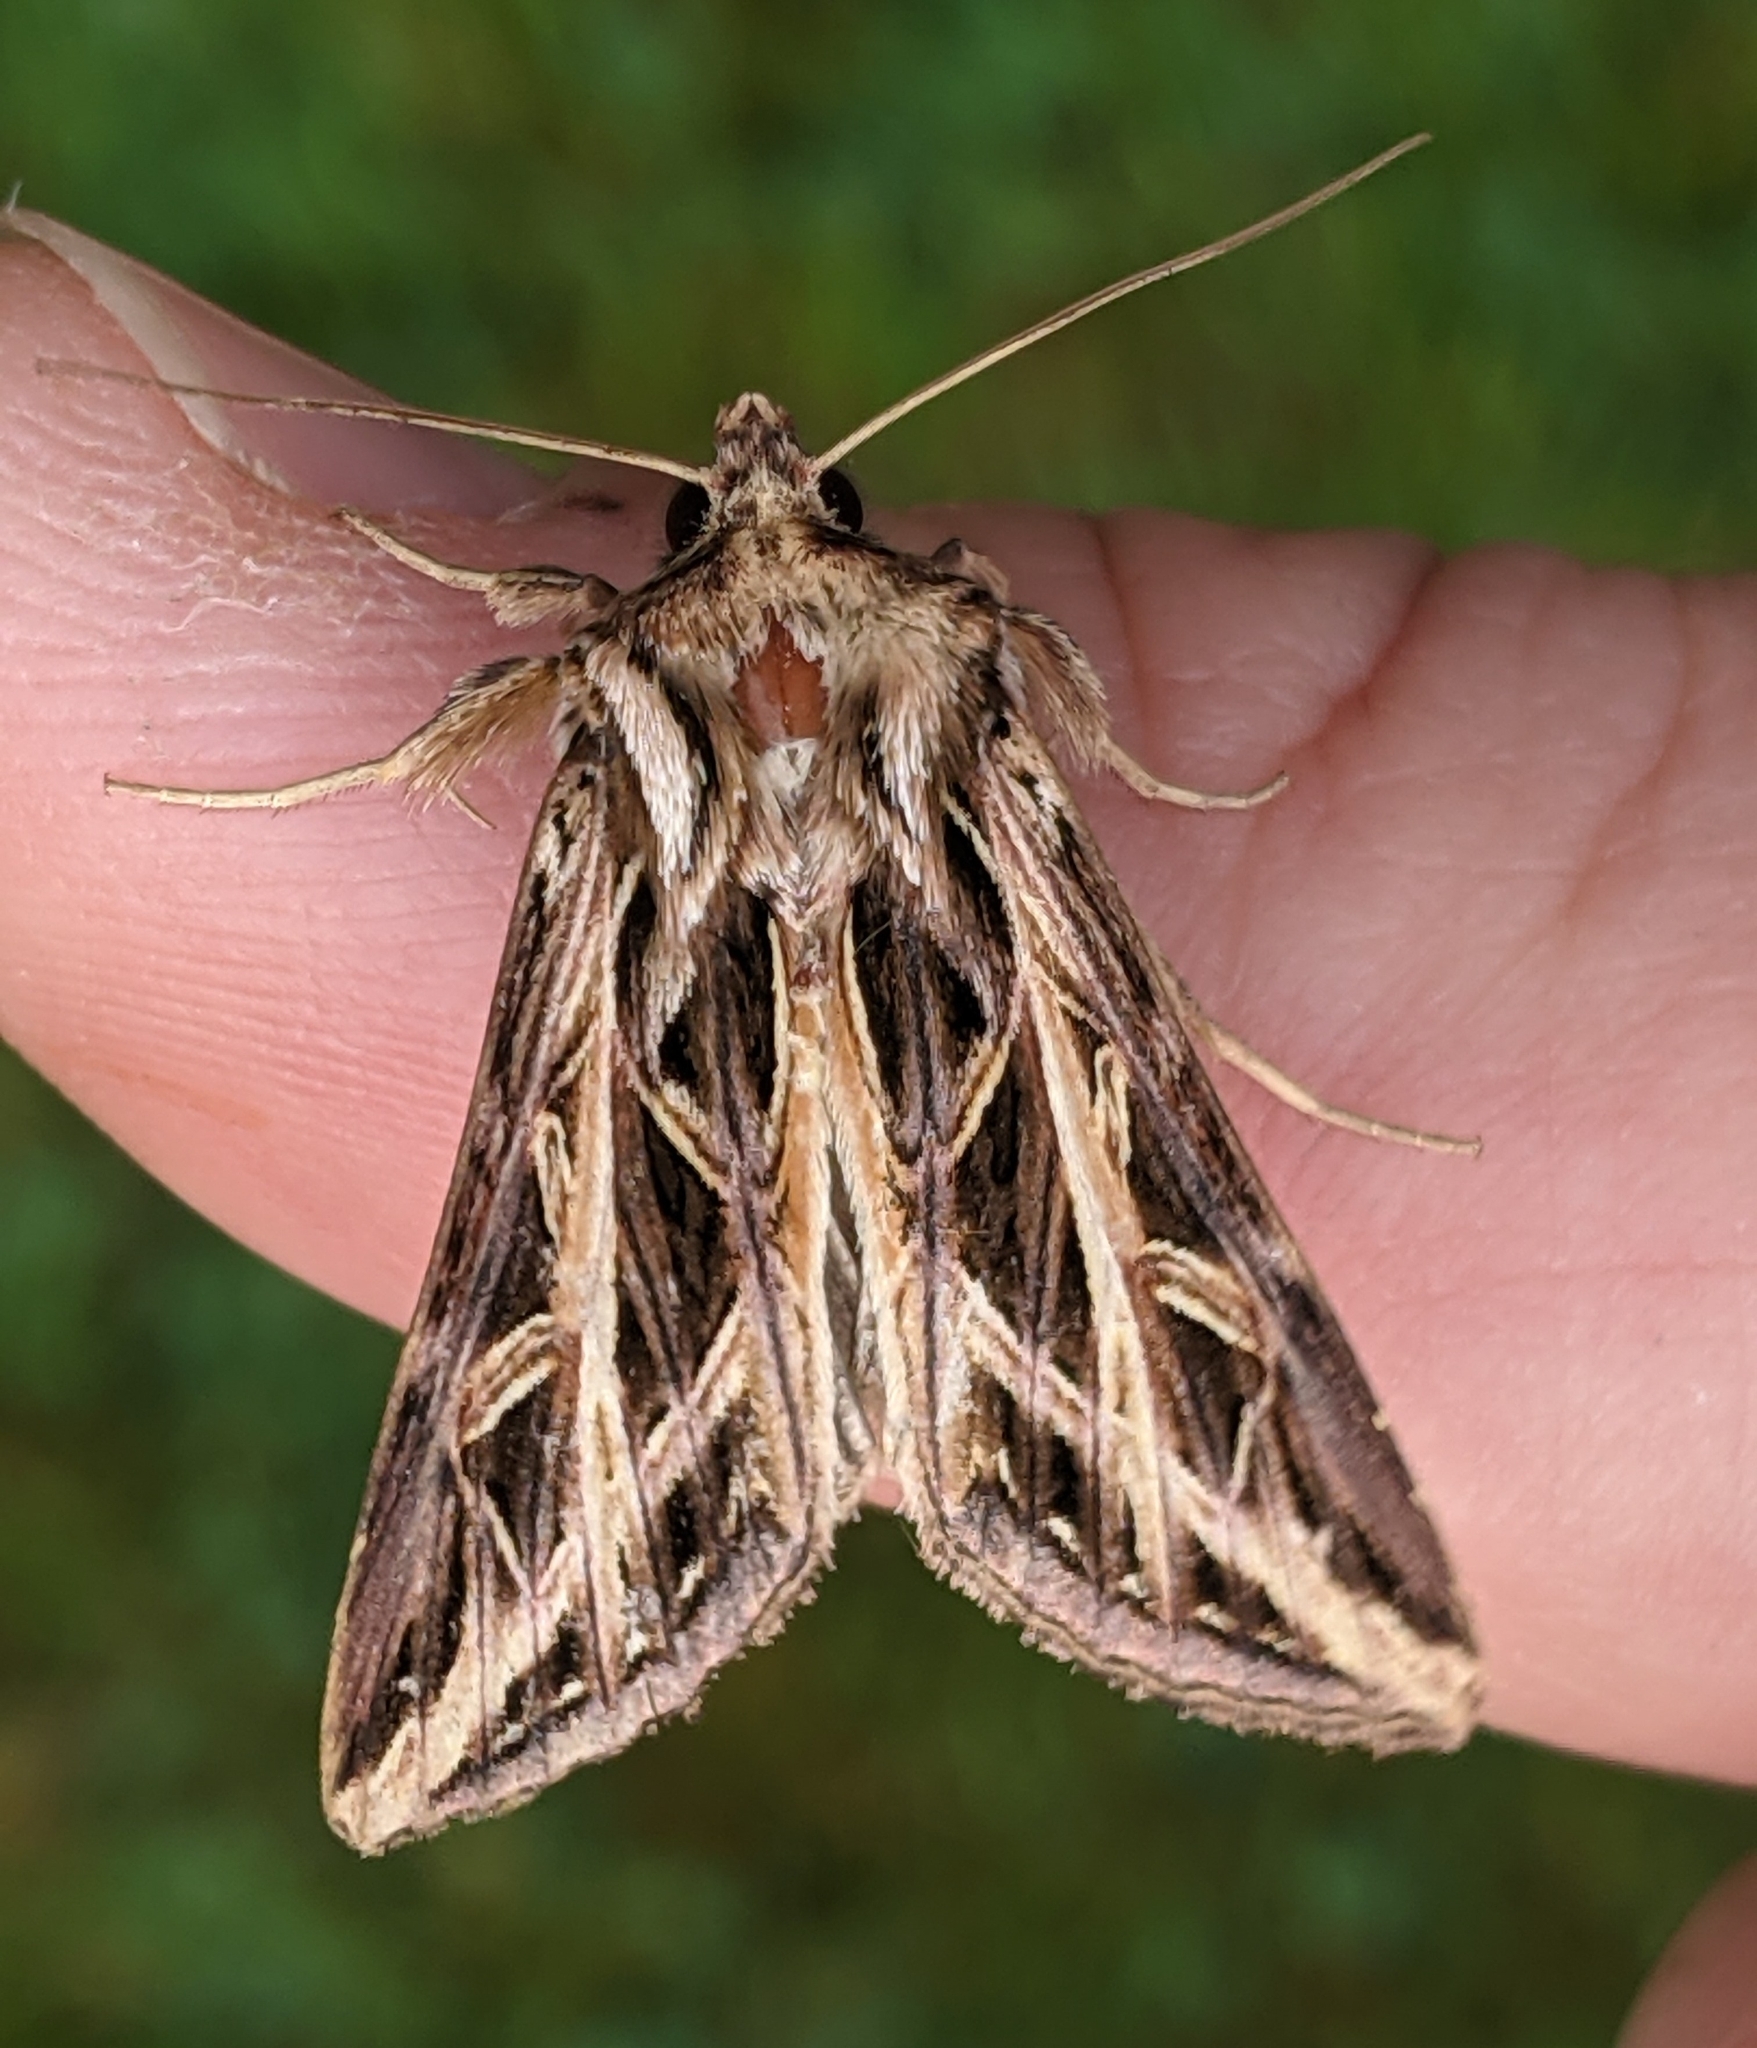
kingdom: Animalia
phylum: Arthropoda
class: Insecta
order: Lepidoptera
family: Noctuidae
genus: Dargida
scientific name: Dargida procinctus
